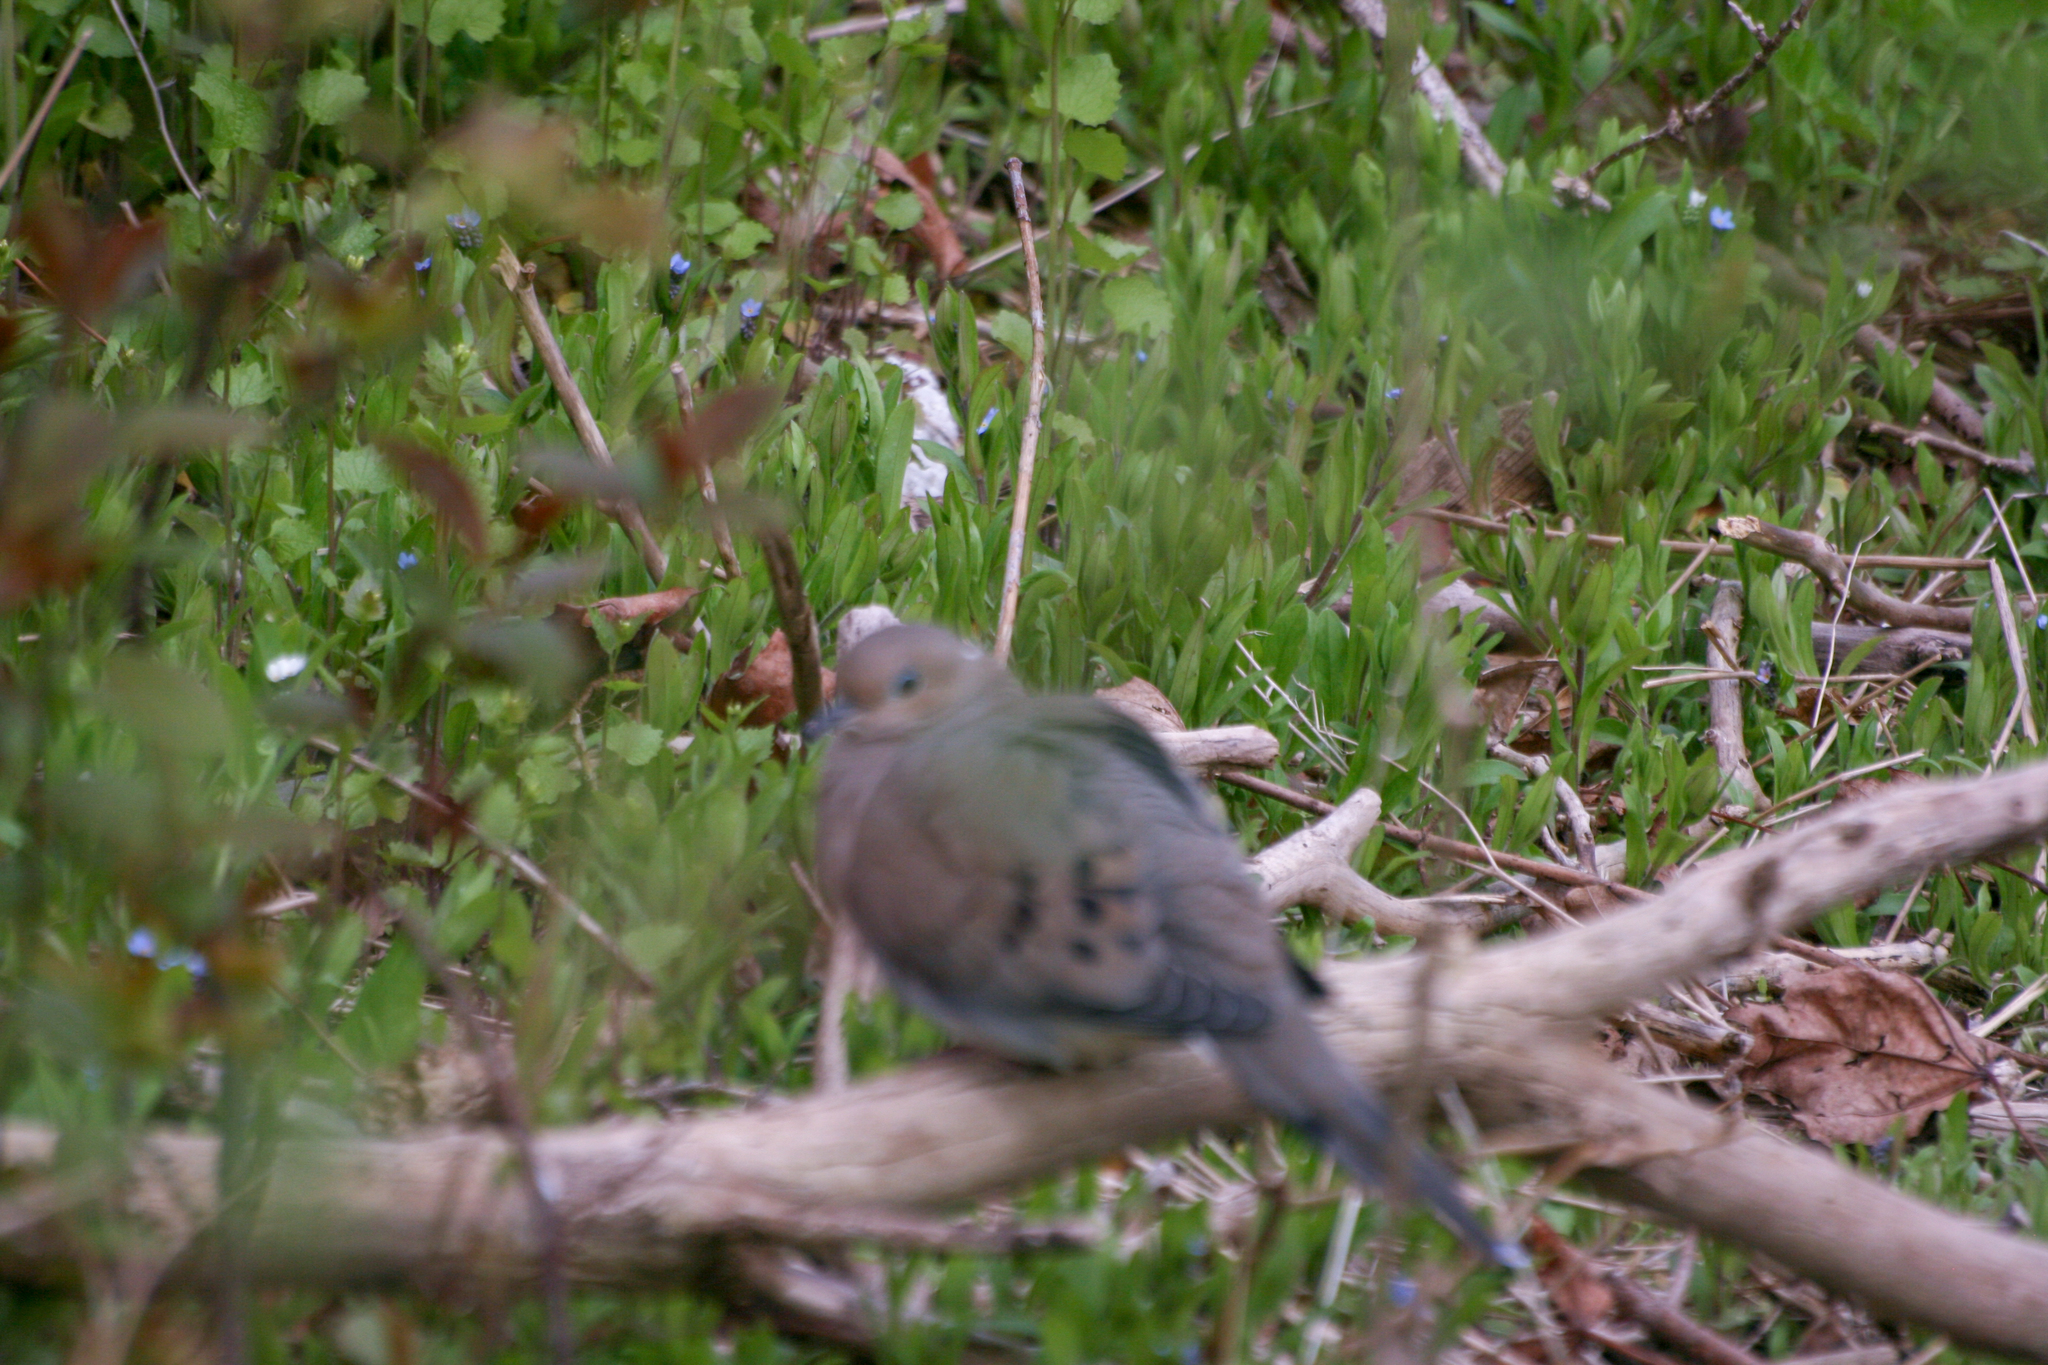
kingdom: Animalia
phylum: Chordata
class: Aves
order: Columbiformes
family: Columbidae
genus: Zenaida
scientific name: Zenaida macroura
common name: Mourning dove
